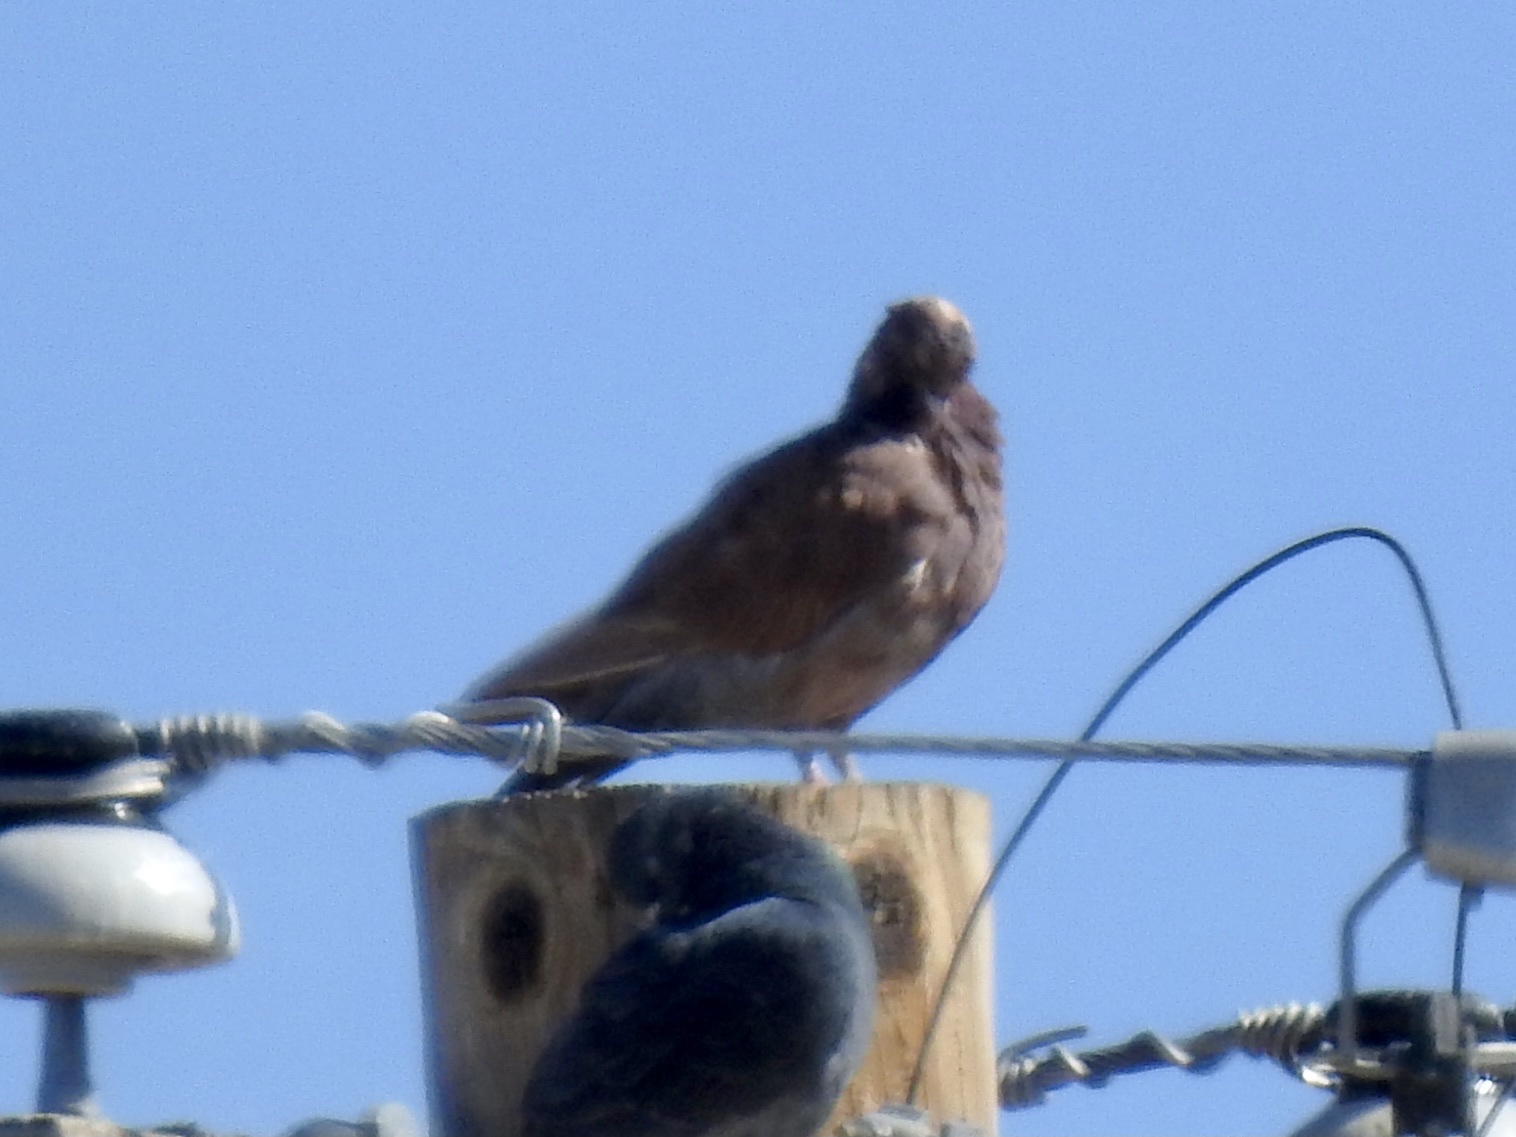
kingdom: Animalia
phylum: Chordata
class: Aves
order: Columbiformes
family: Columbidae
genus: Columba
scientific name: Columba livia
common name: Rock pigeon
